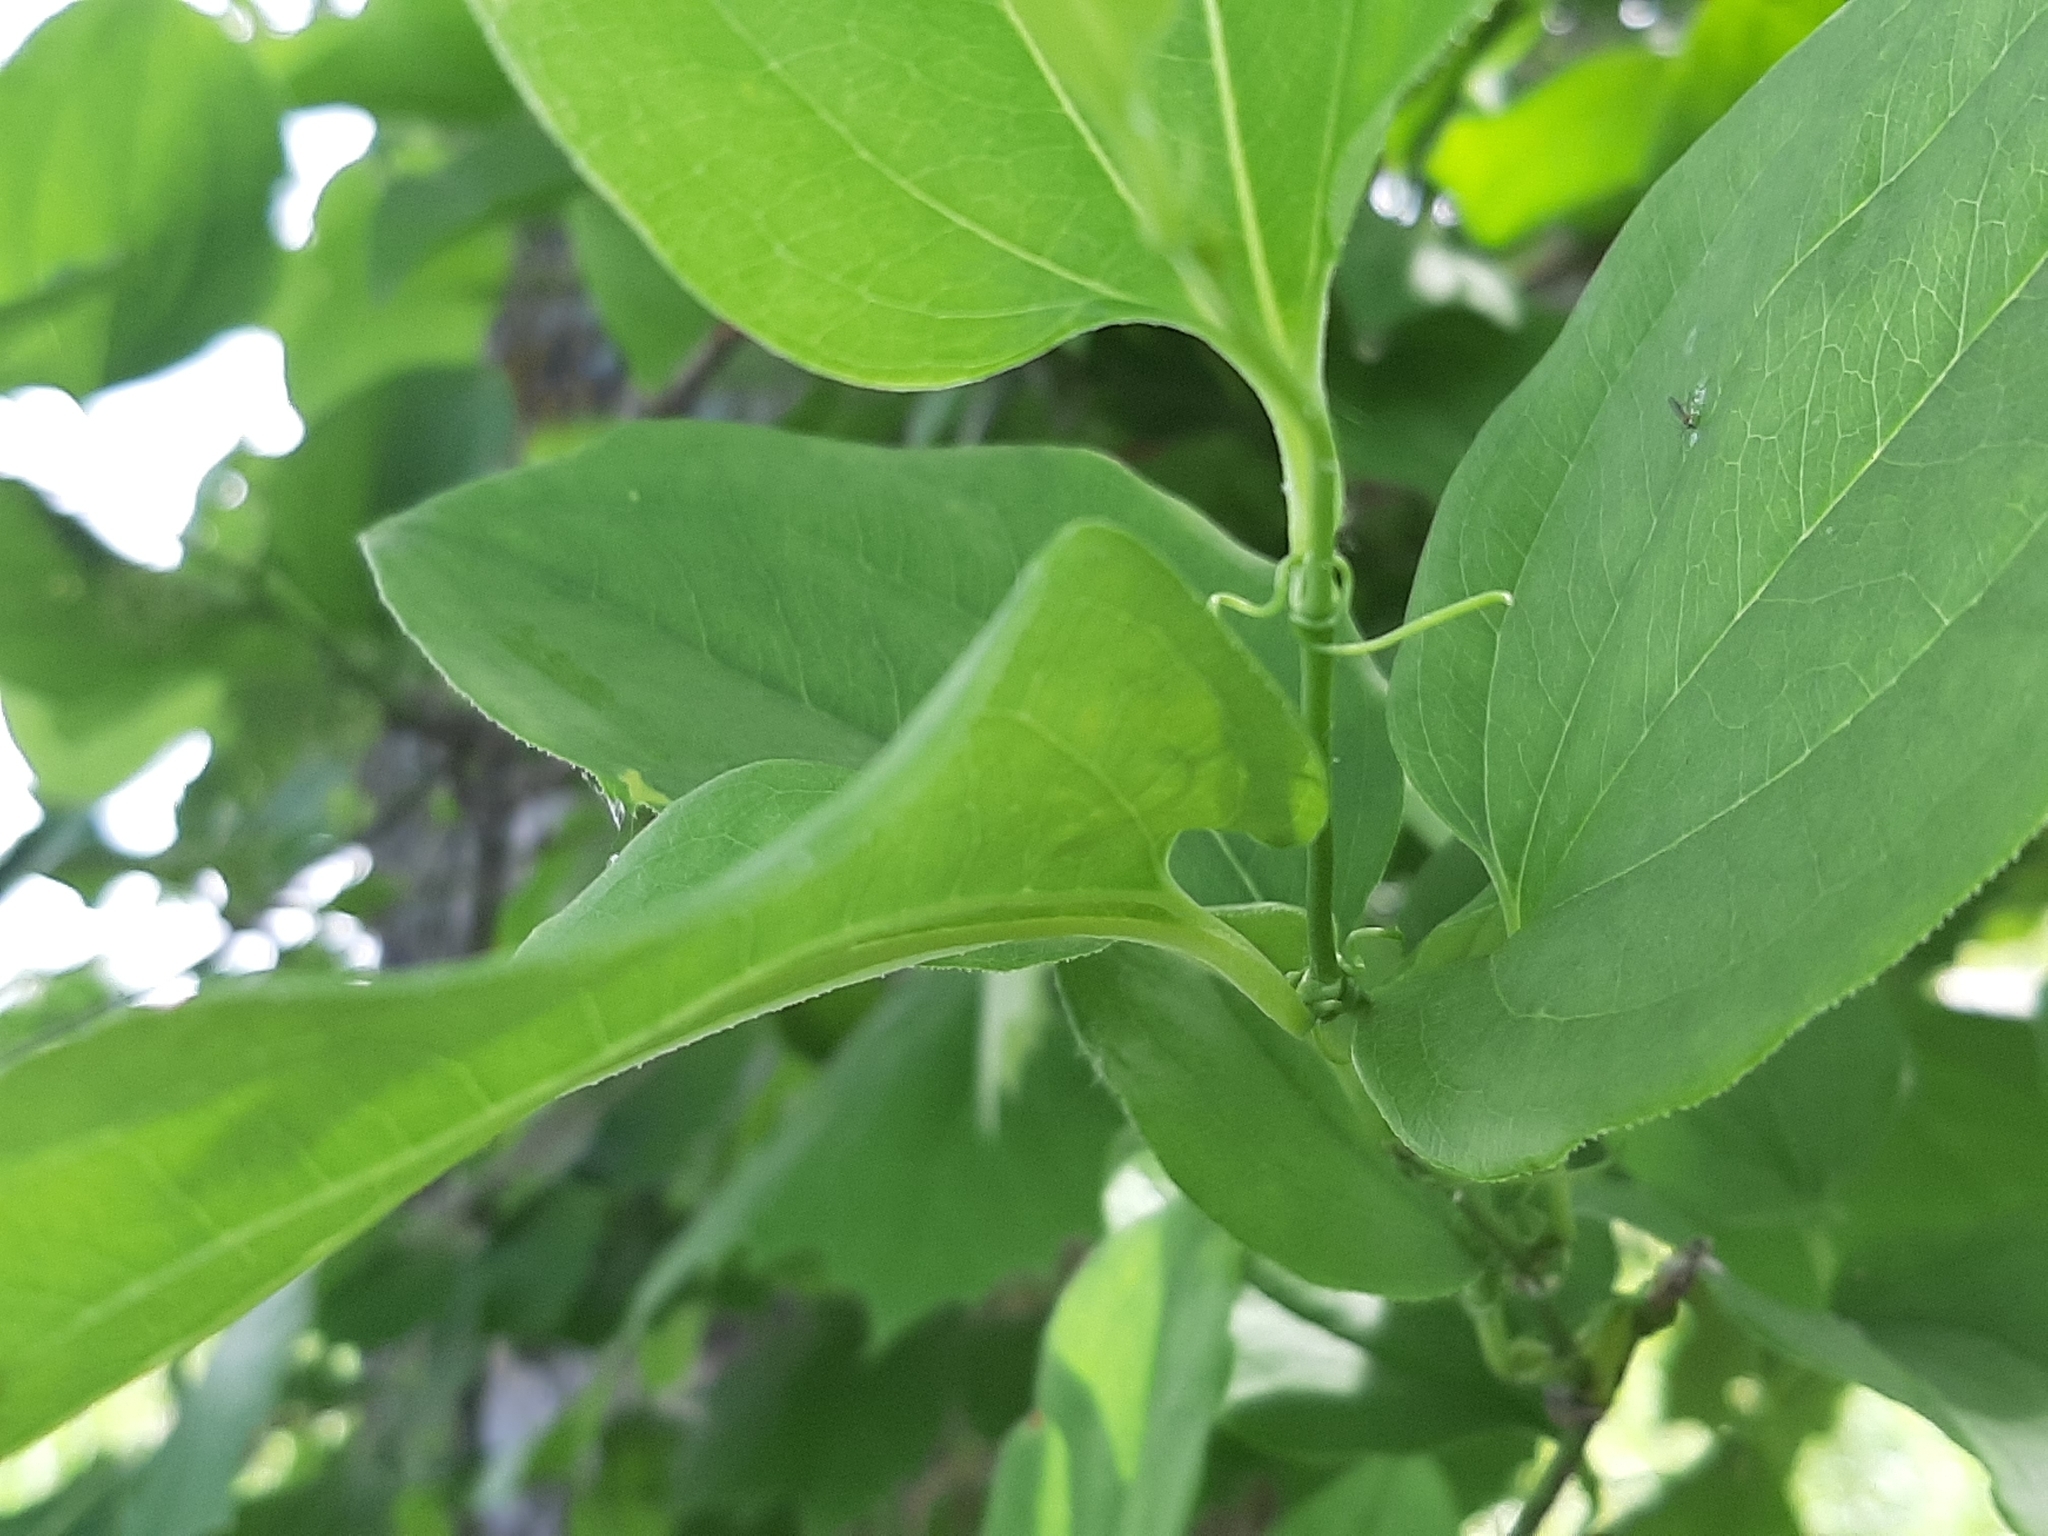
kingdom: Plantae
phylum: Tracheophyta
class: Liliopsida
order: Liliales
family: Smilacaceae
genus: Smilax
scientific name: Smilax tamnoides
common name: Hellfetter
